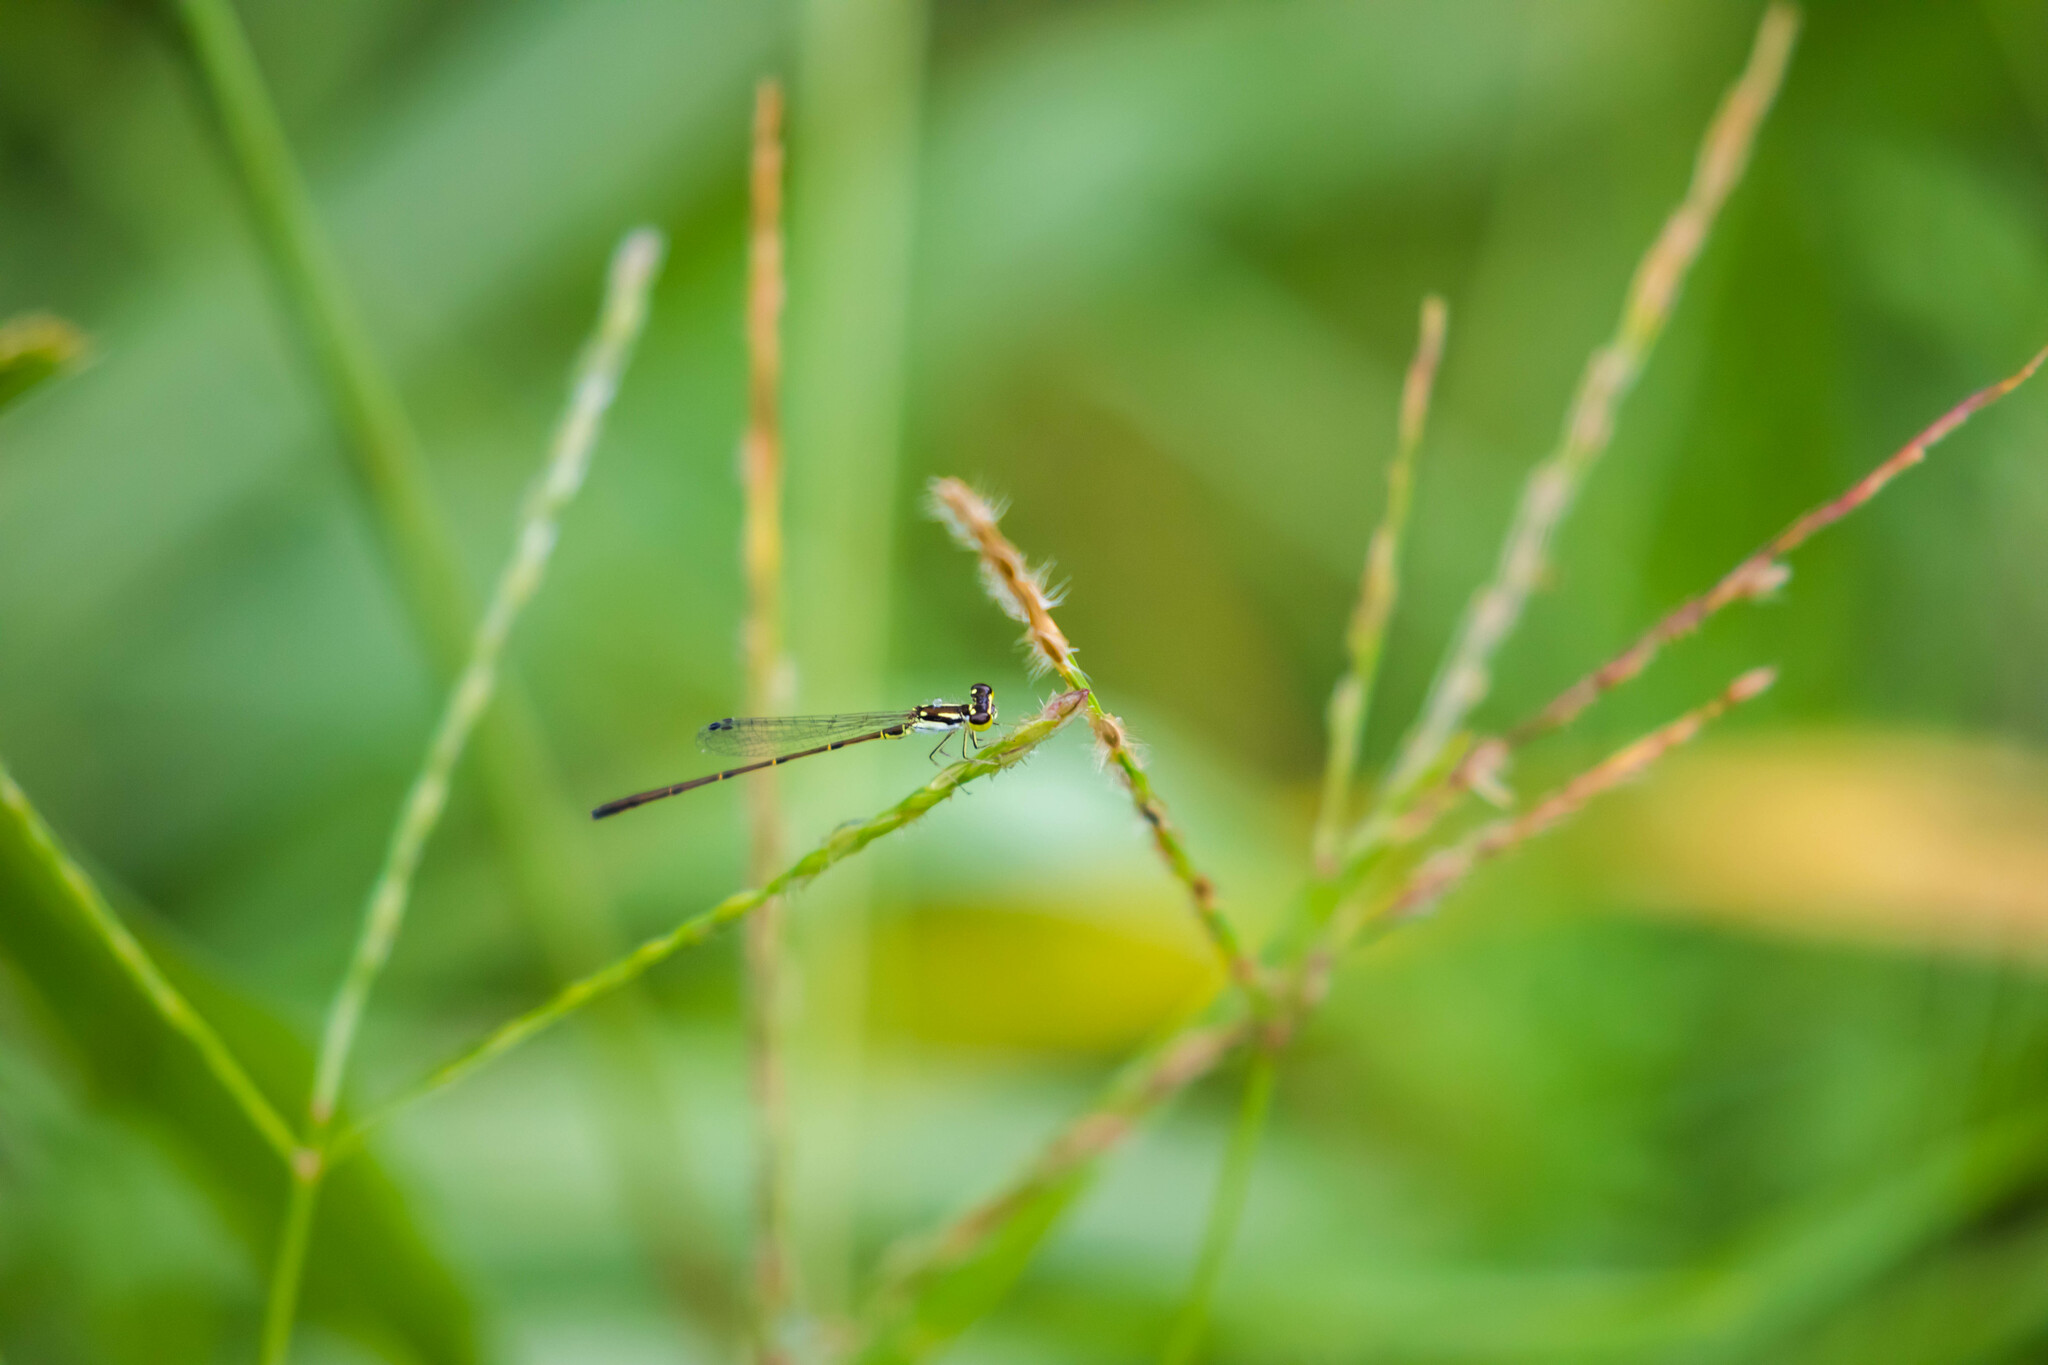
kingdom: Animalia
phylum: Arthropoda
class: Insecta
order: Odonata
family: Coenagrionidae
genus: Ischnura
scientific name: Ischnura posita
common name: Fragile forktail
